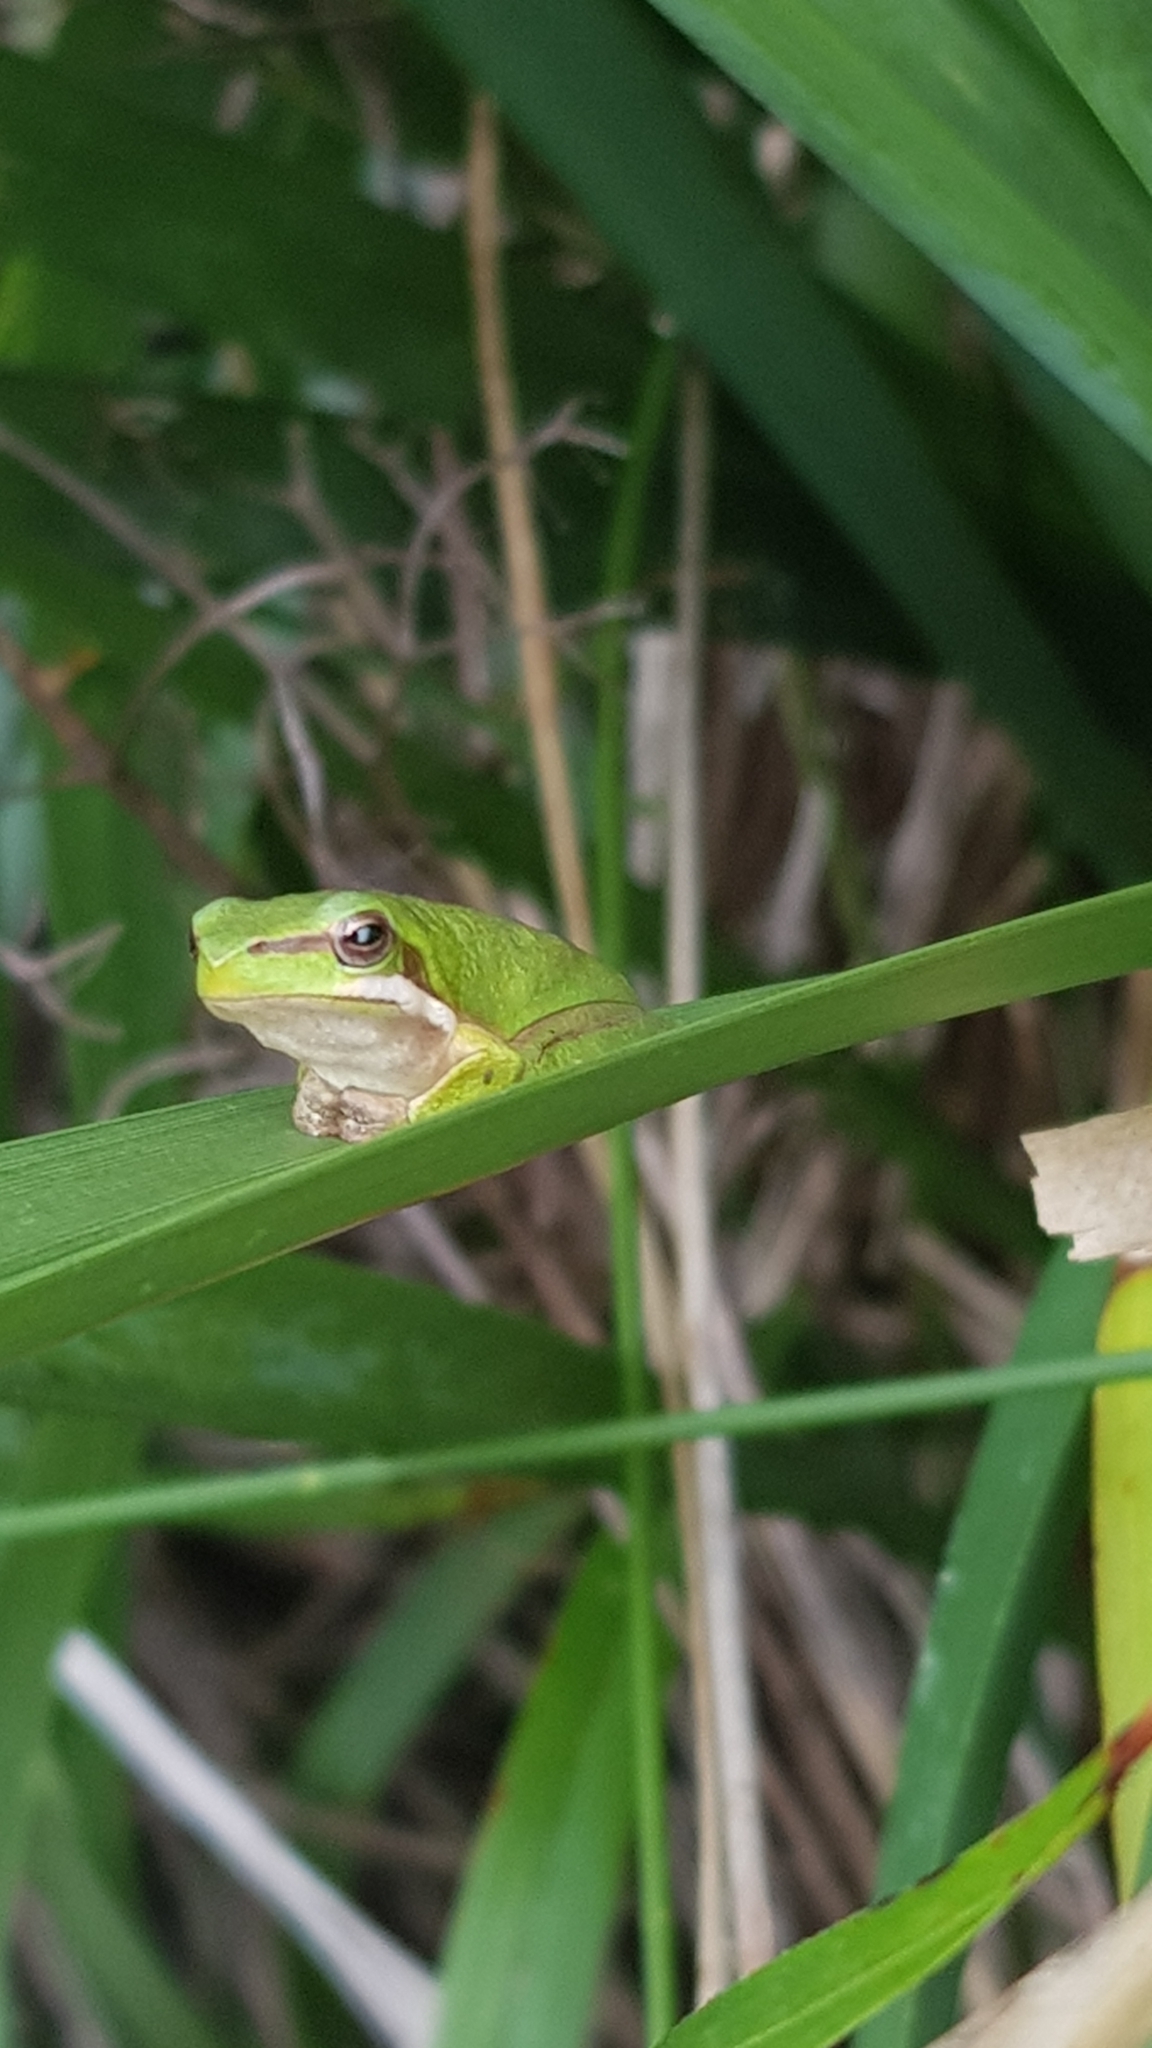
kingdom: Animalia
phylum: Chordata
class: Amphibia
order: Anura
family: Pelodryadidae
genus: Litoria
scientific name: Litoria fallax
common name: Eastern dwarf treefrog
